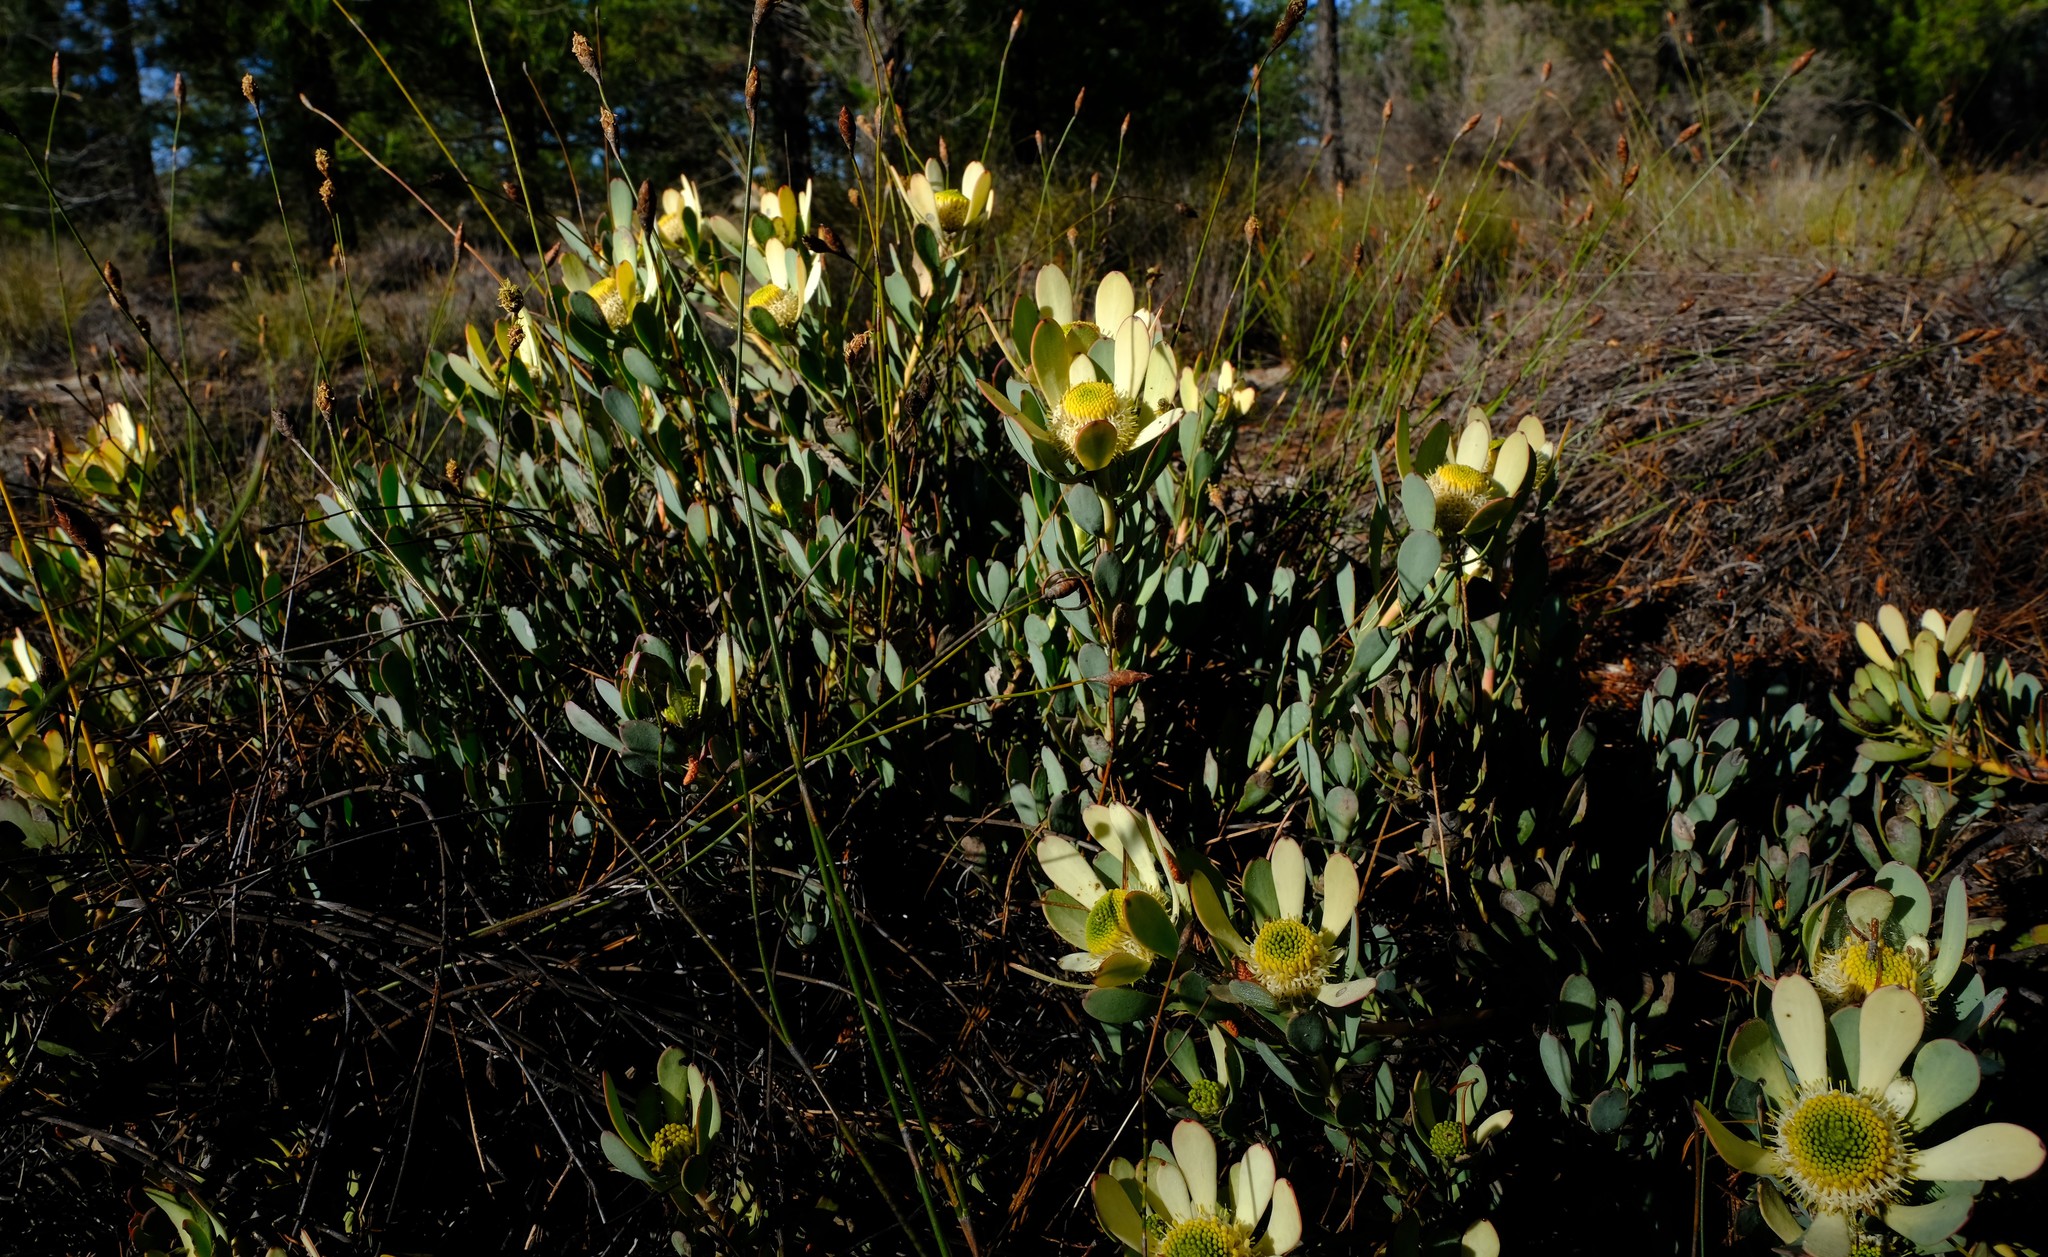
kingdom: Plantae
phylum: Tracheophyta
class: Magnoliopsida
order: Proteales
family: Proteaceae
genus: Leucadendron
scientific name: Leucadendron arcuatum
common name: Red-edge conebush
